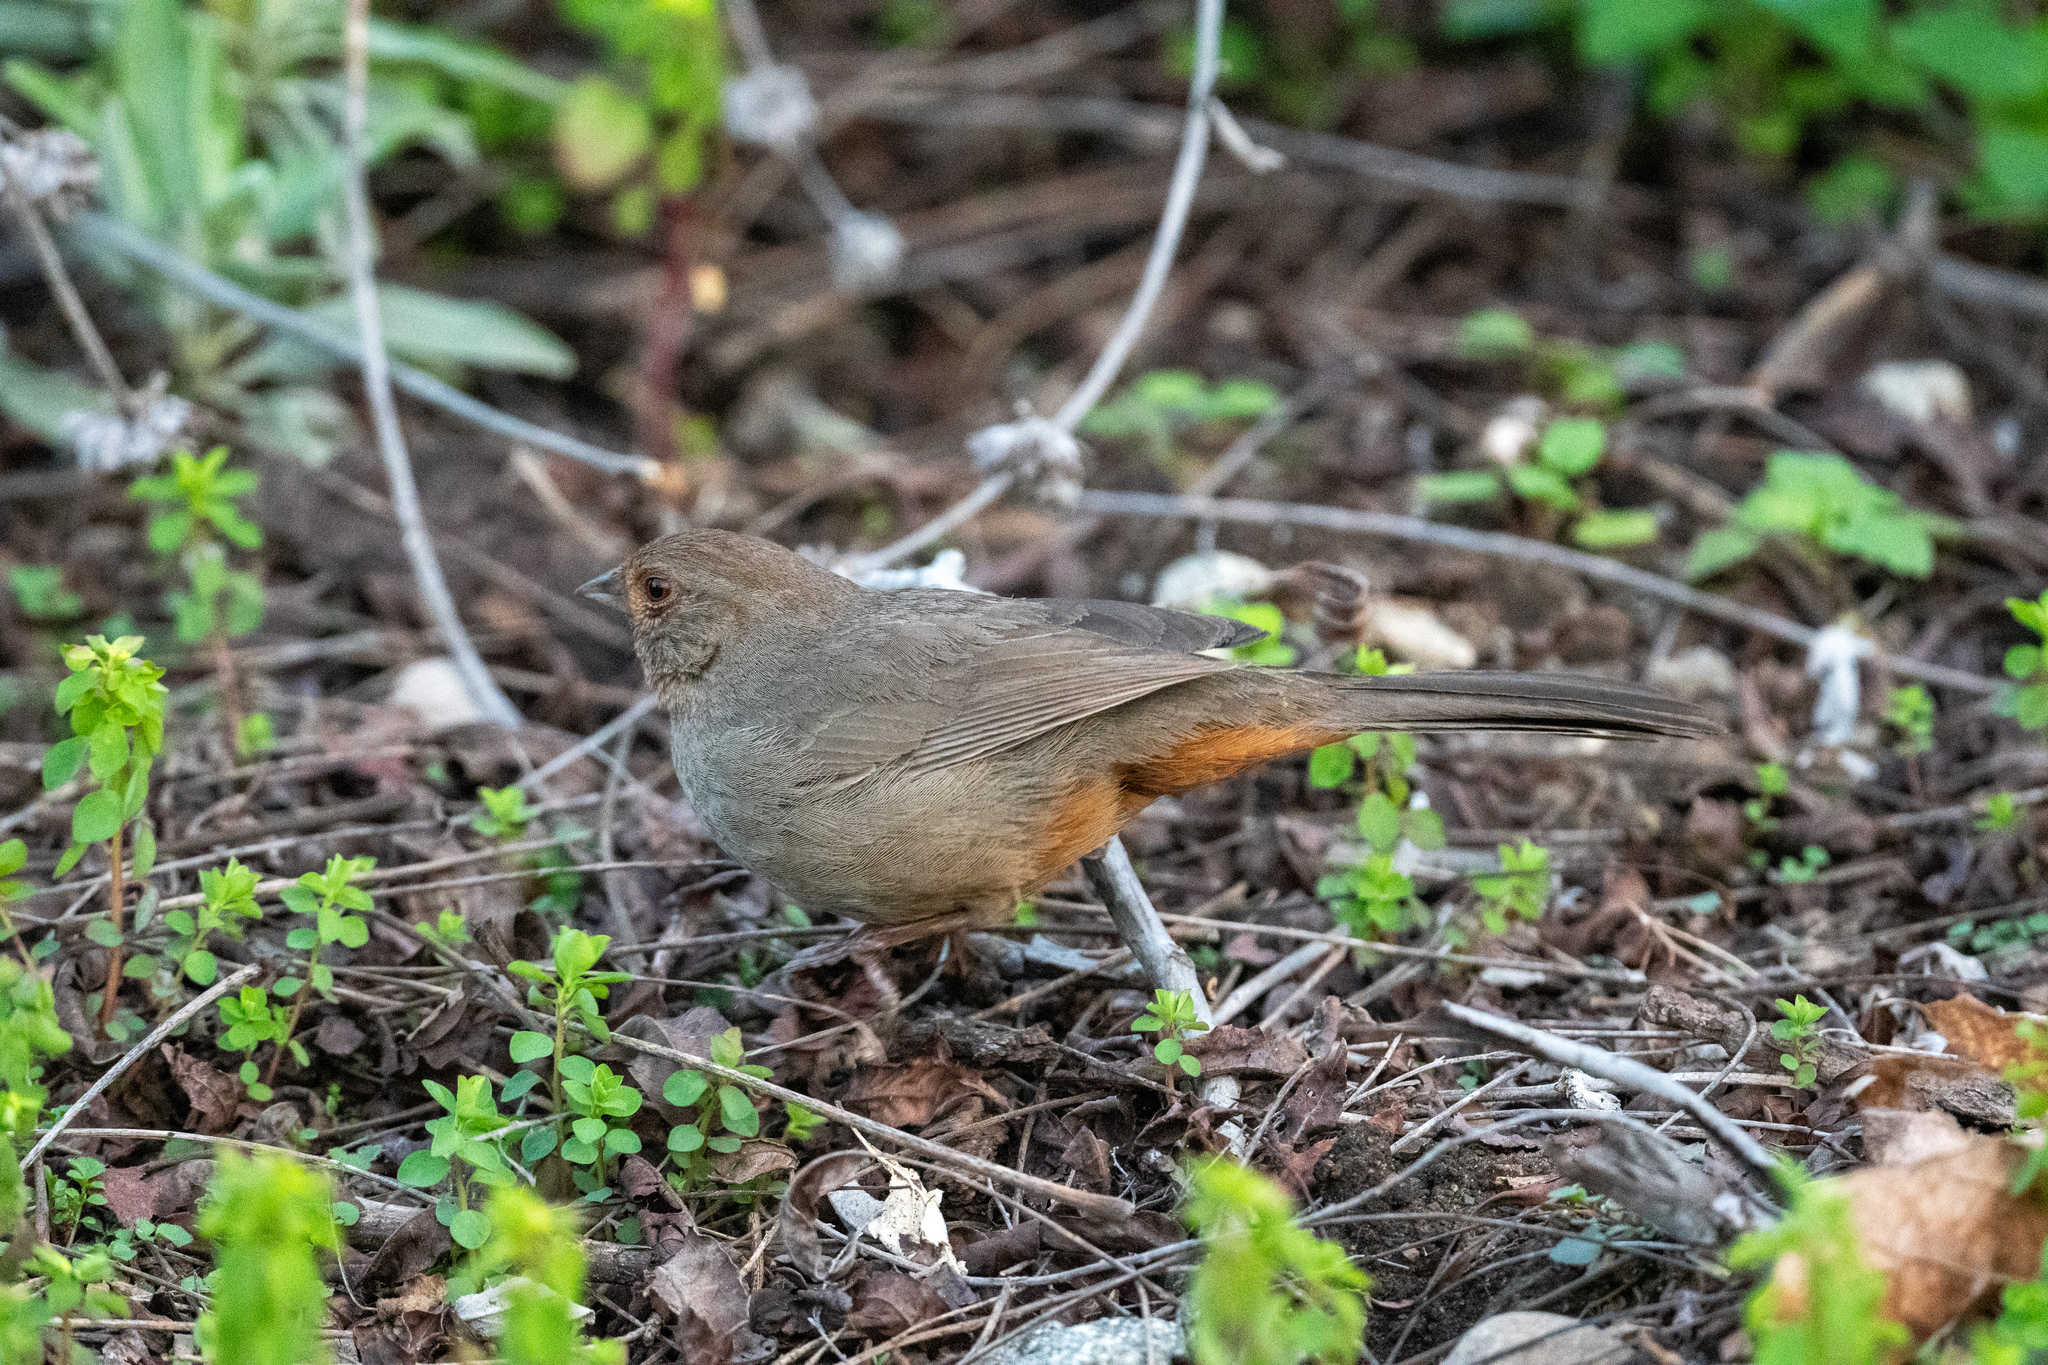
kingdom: Animalia
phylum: Chordata
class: Aves
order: Passeriformes
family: Passerellidae
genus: Melozone
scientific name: Melozone crissalis
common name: California towhee
